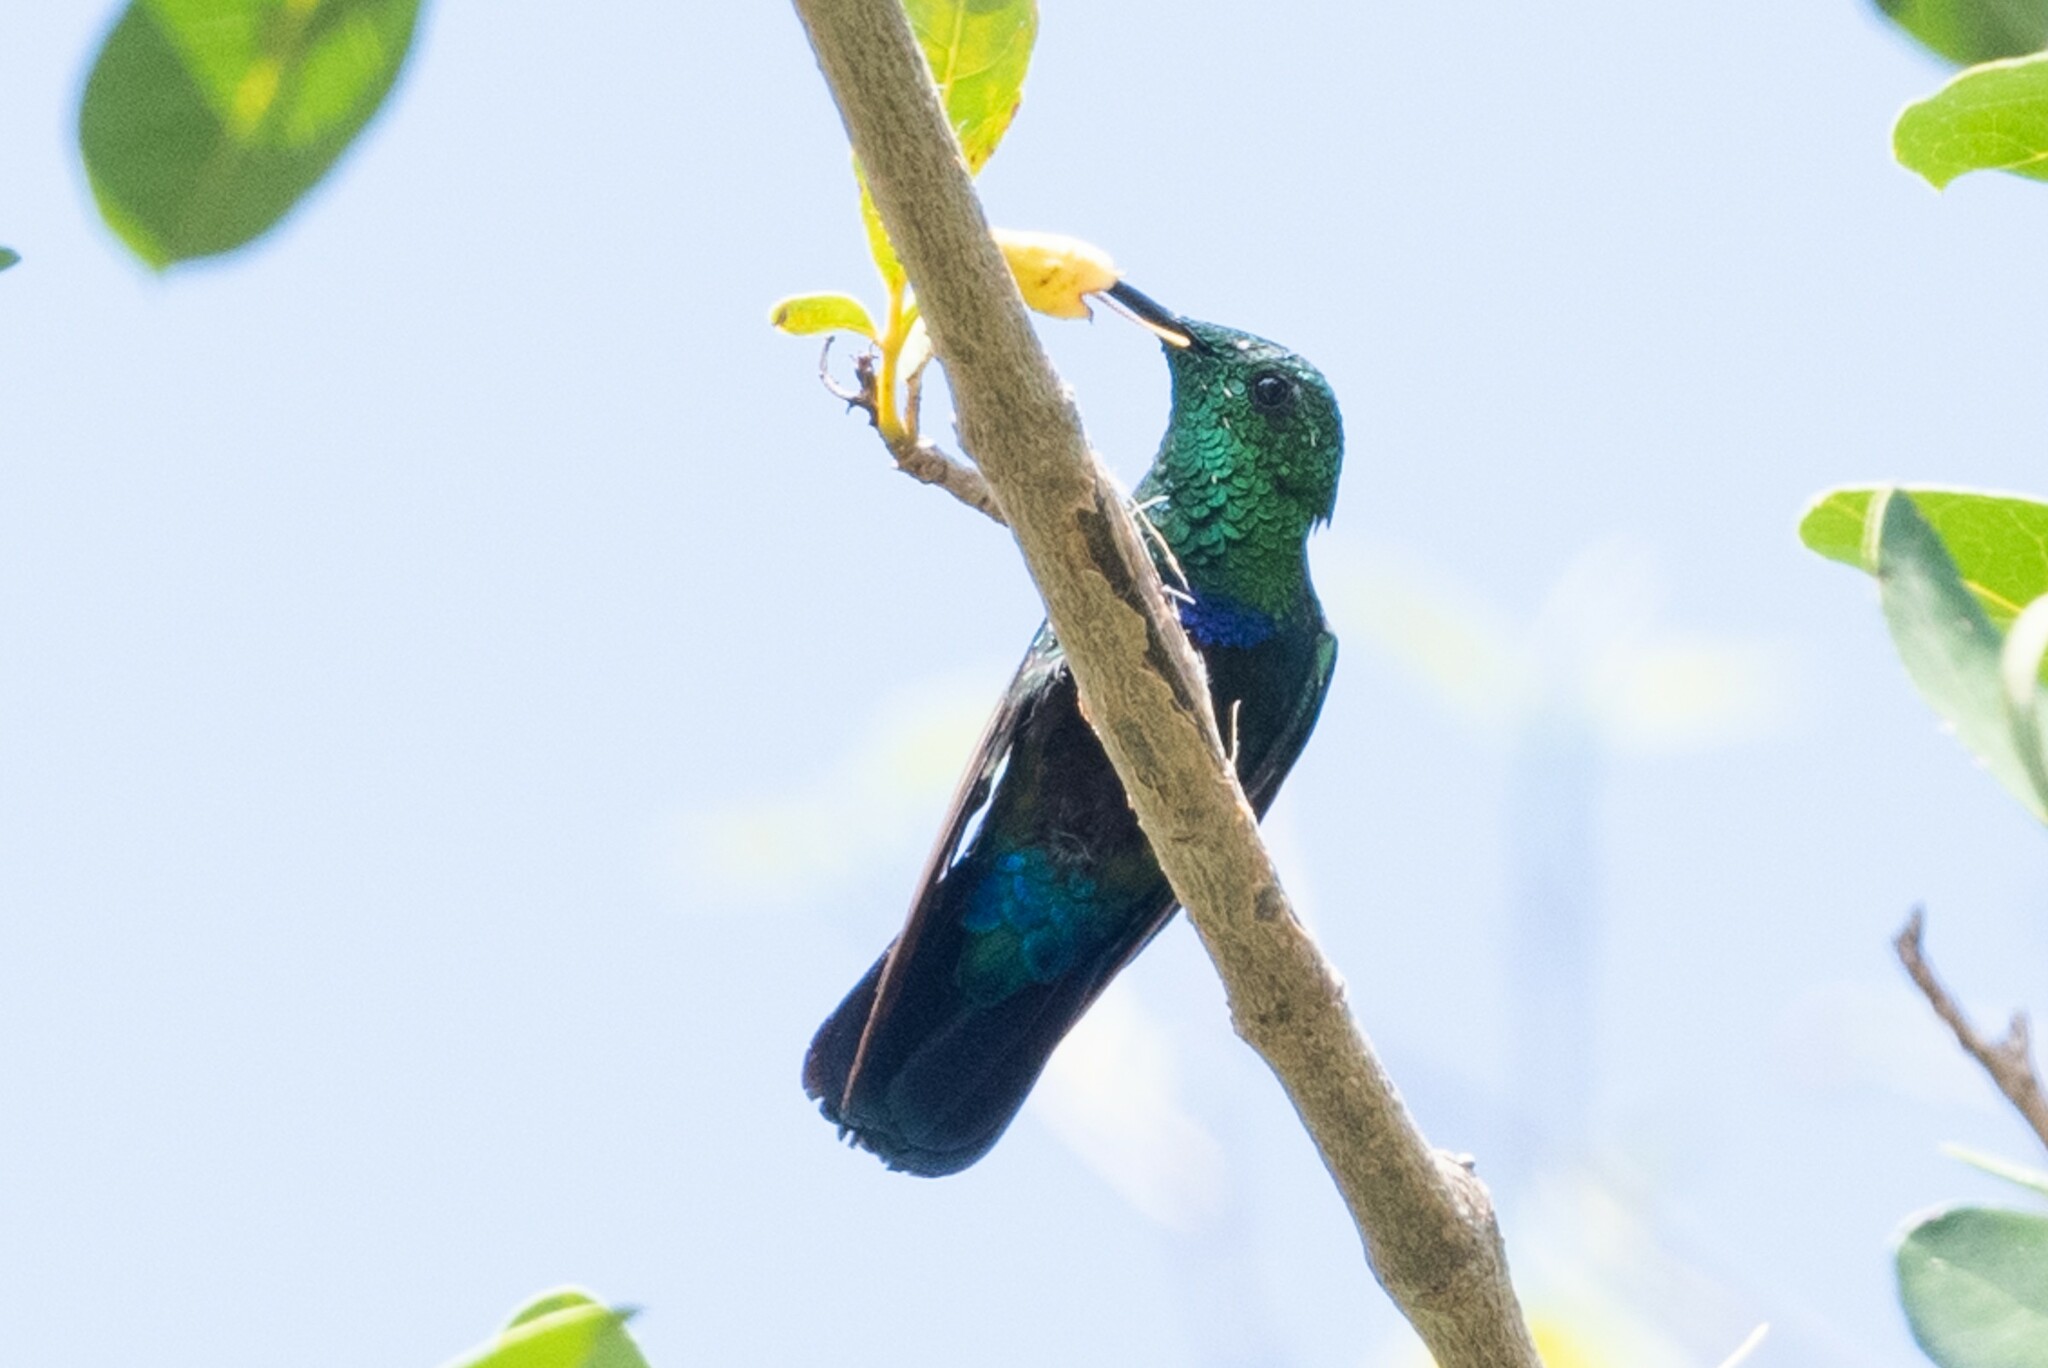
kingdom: Animalia
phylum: Chordata
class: Aves
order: Apodiformes
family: Trochilidae
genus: Eulampis
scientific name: Eulampis holosericeus
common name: Green-throated carib
